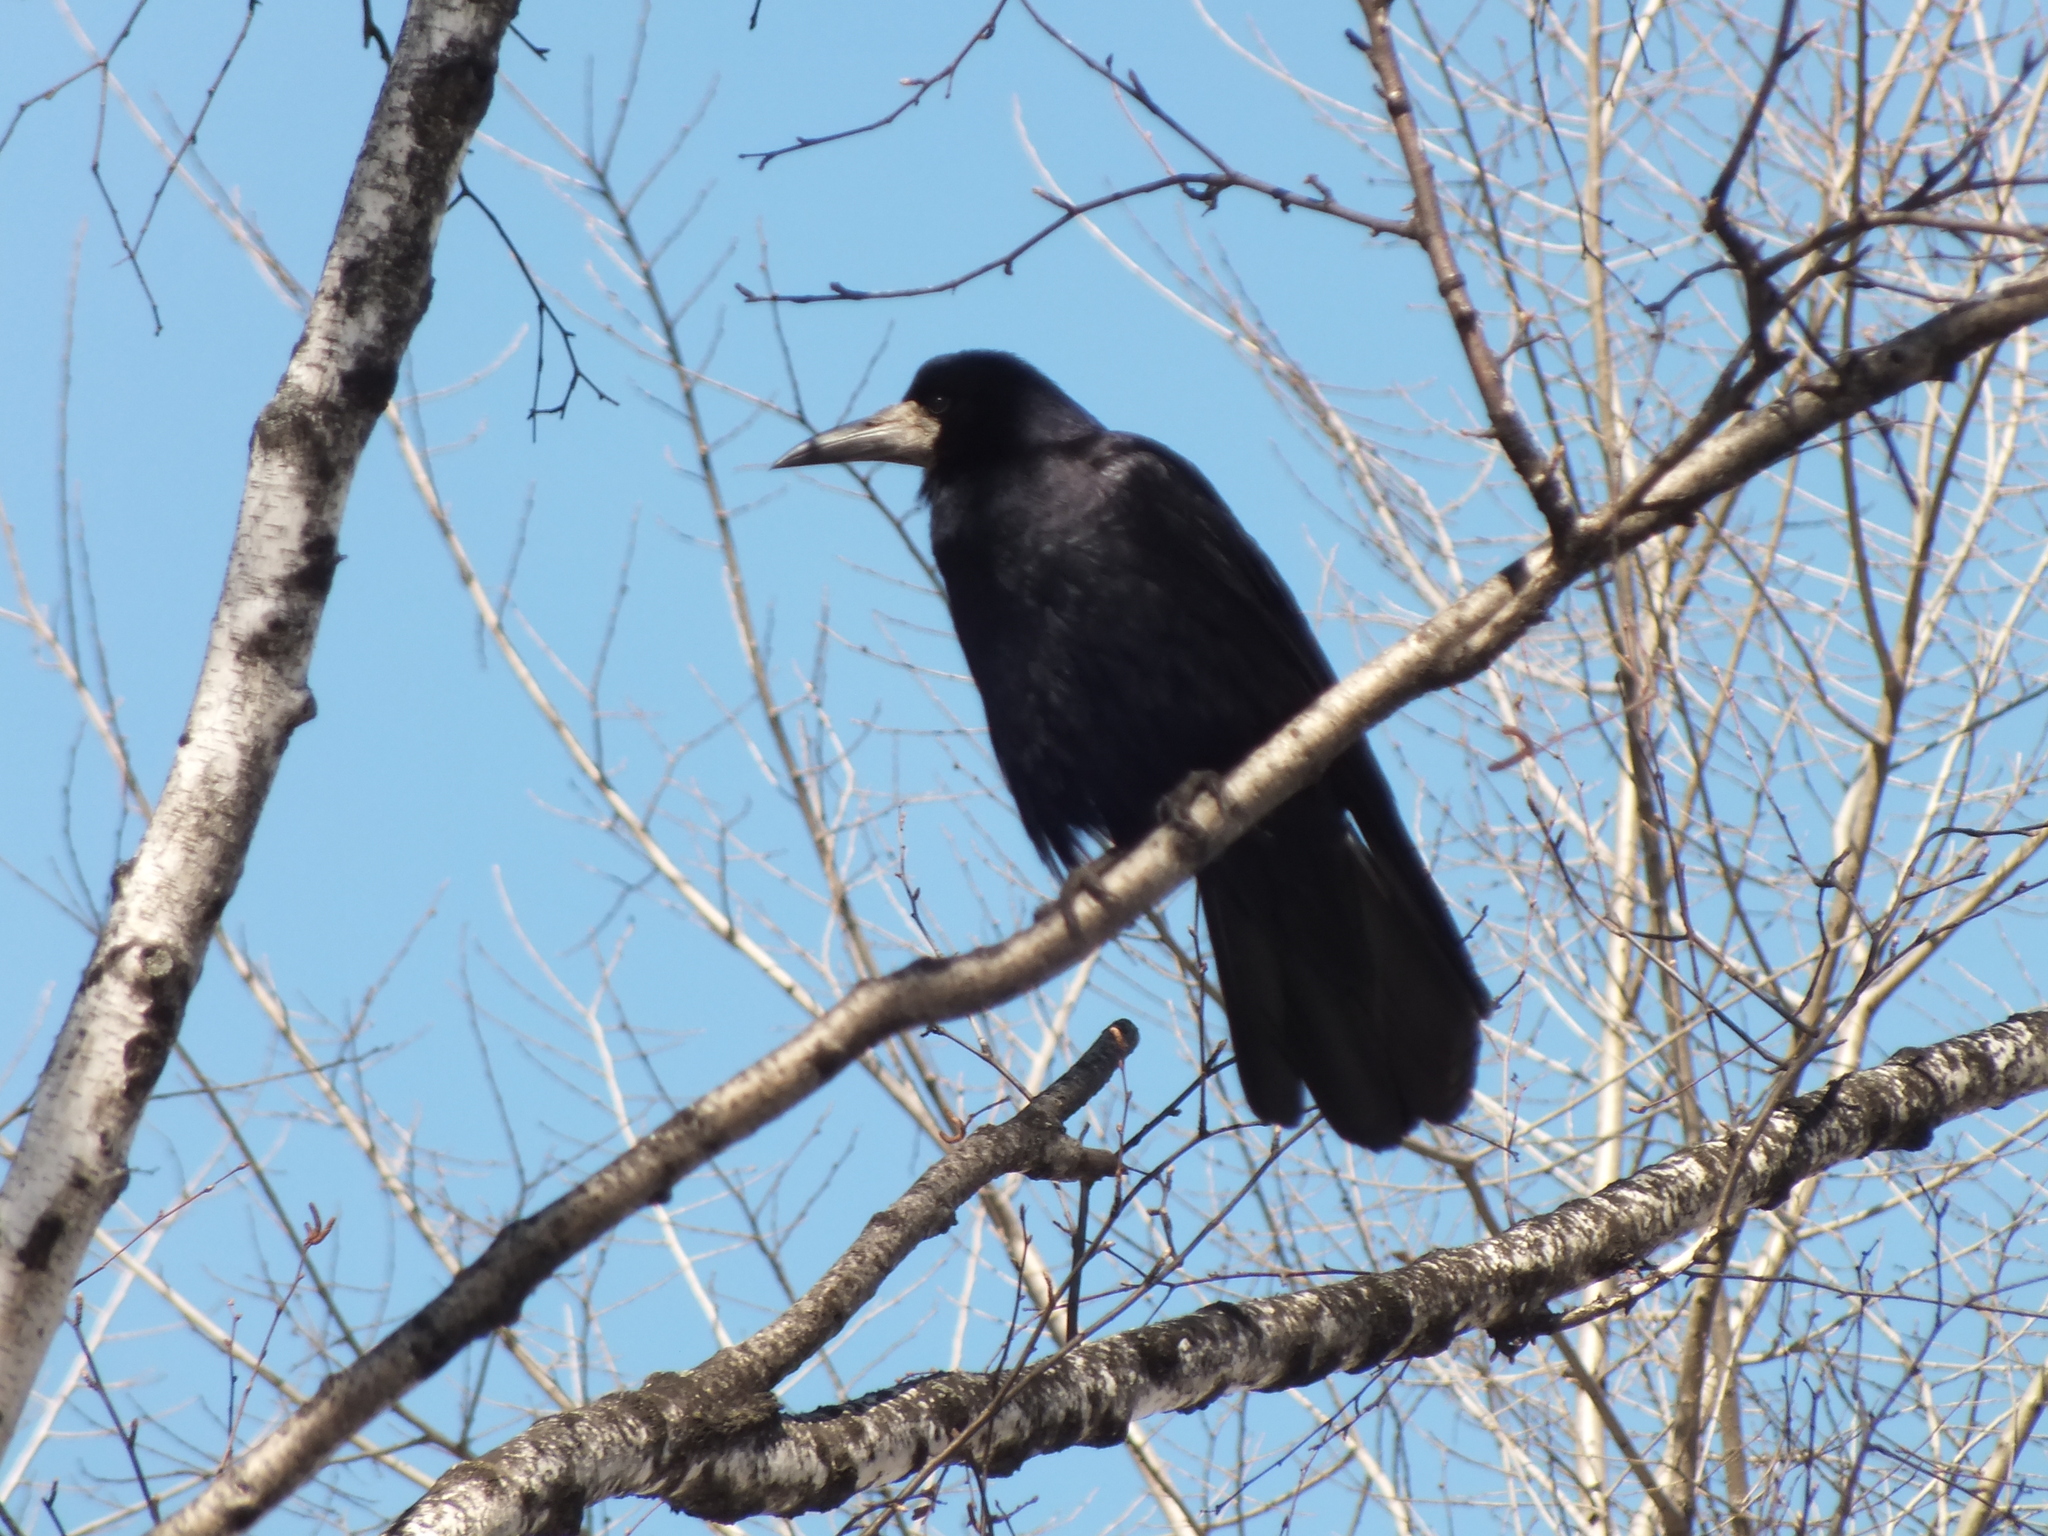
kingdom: Animalia
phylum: Chordata
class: Aves
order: Passeriformes
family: Corvidae
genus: Corvus
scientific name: Corvus frugilegus
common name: Rook
